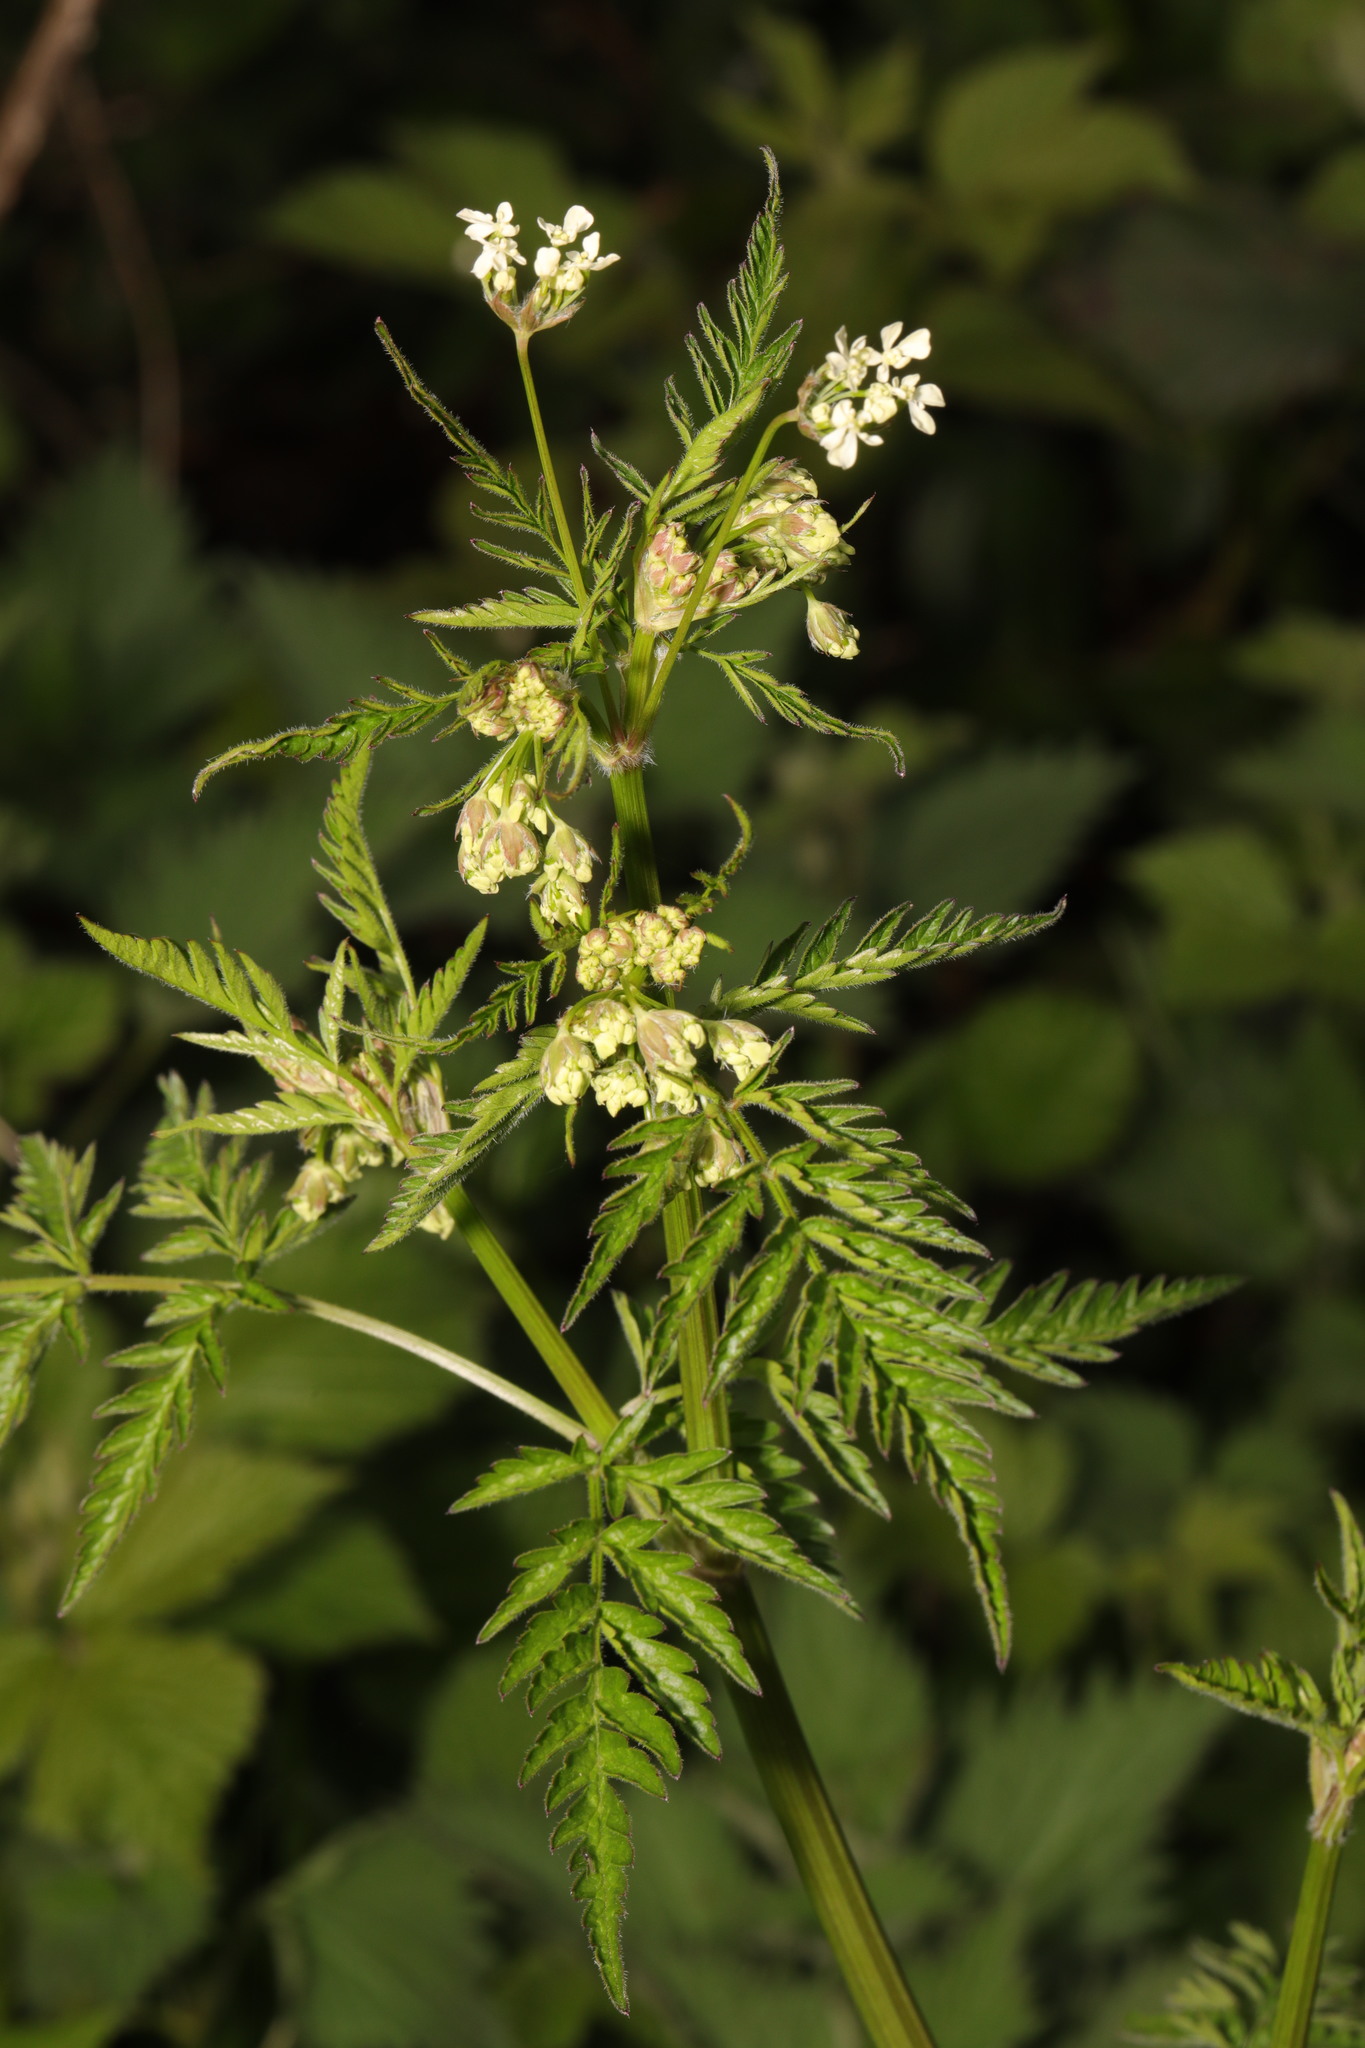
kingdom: Plantae
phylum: Tracheophyta
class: Magnoliopsida
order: Apiales
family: Apiaceae
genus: Anthriscus
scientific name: Anthriscus sylvestris
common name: Cow parsley
